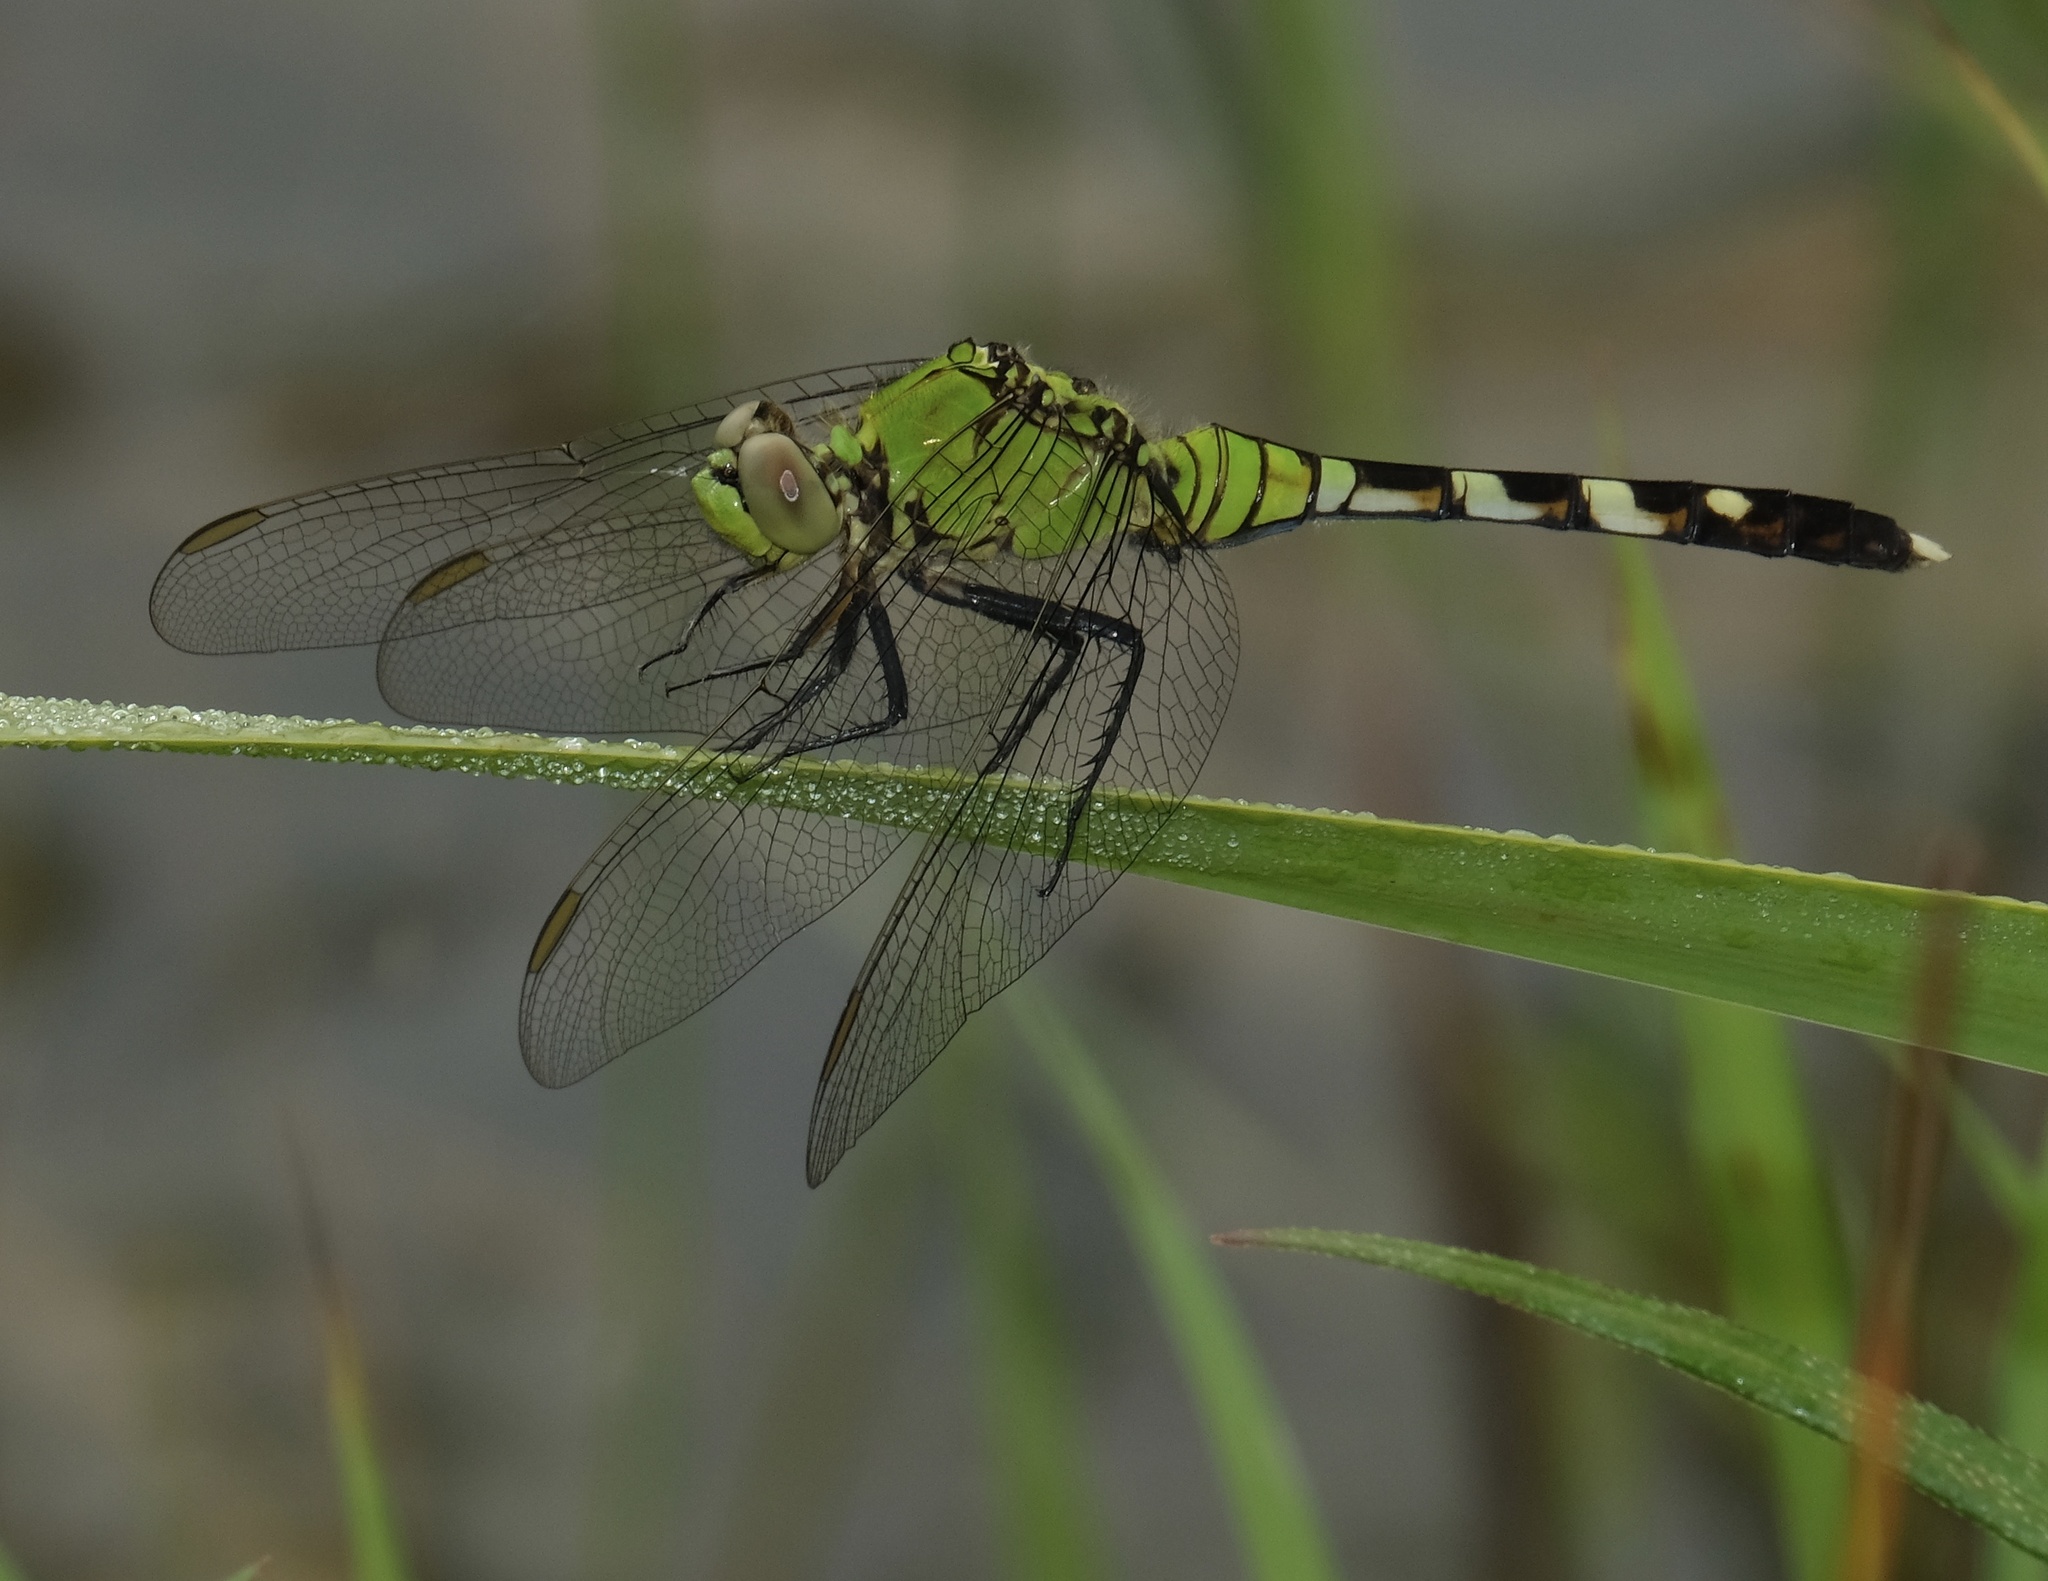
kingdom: Animalia
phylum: Arthropoda
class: Insecta
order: Odonata
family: Libellulidae
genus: Erythemis
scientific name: Erythemis simplicicollis
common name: Eastern pondhawk
